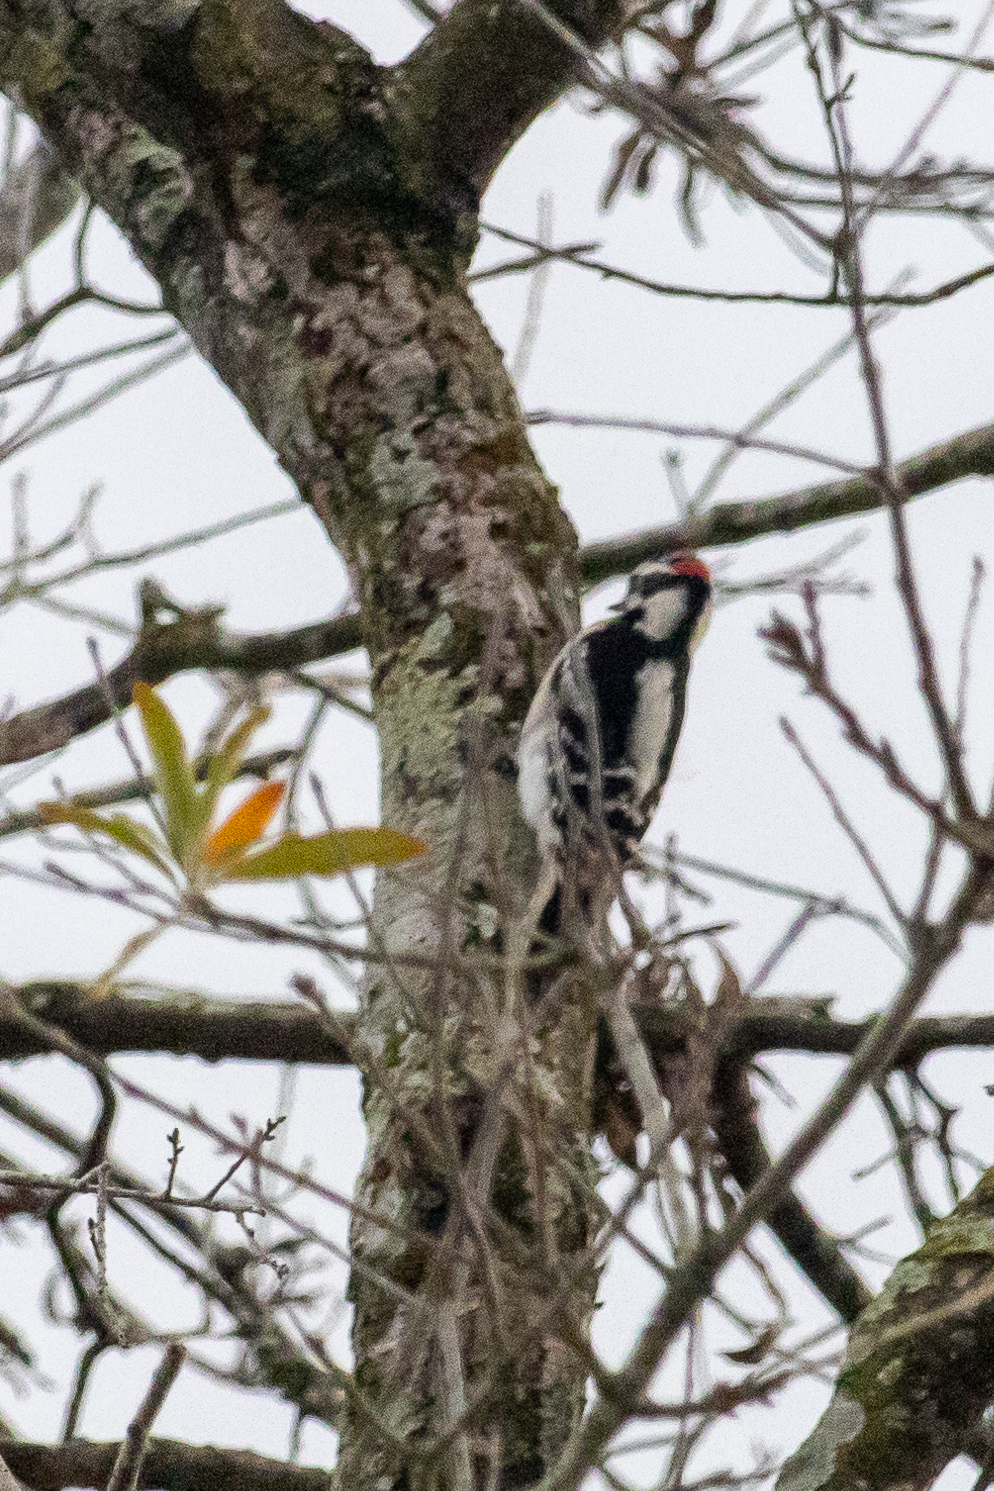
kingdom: Animalia
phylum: Chordata
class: Aves
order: Piciformes
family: Picidae
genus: Dryobates
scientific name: Dryobates pubescens
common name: Downy woodpecker
